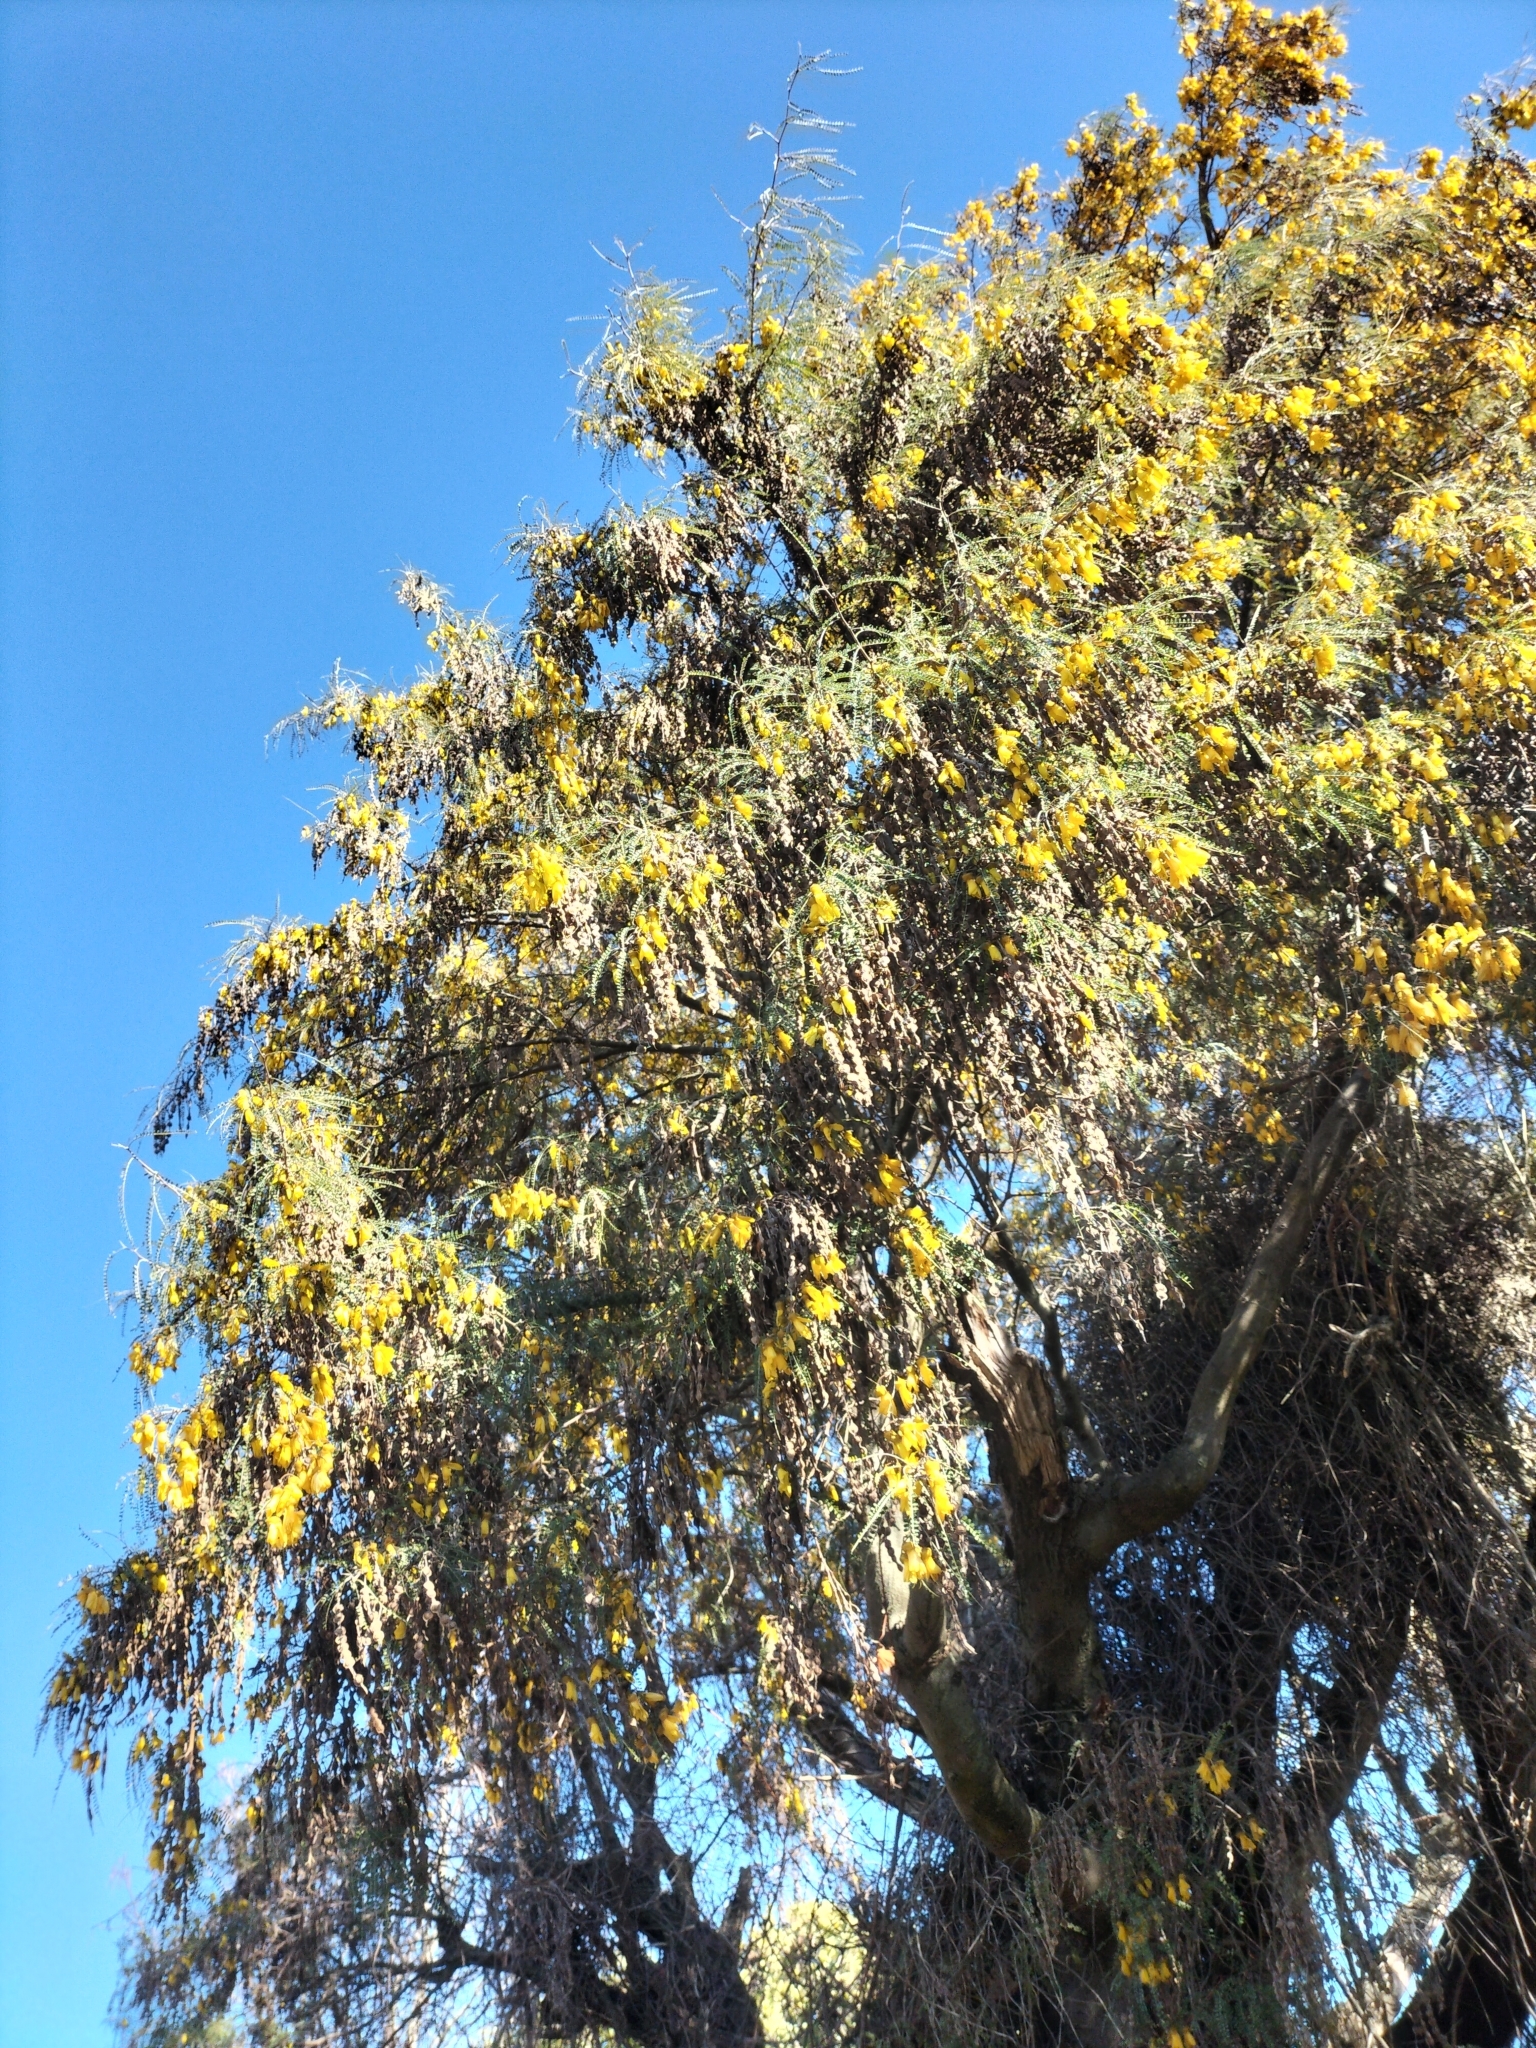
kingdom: Plantae
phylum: Tracheophyta
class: Magnoliopsida
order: Fabales
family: Fabaceae
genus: Sophora
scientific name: Sophora microphylla
